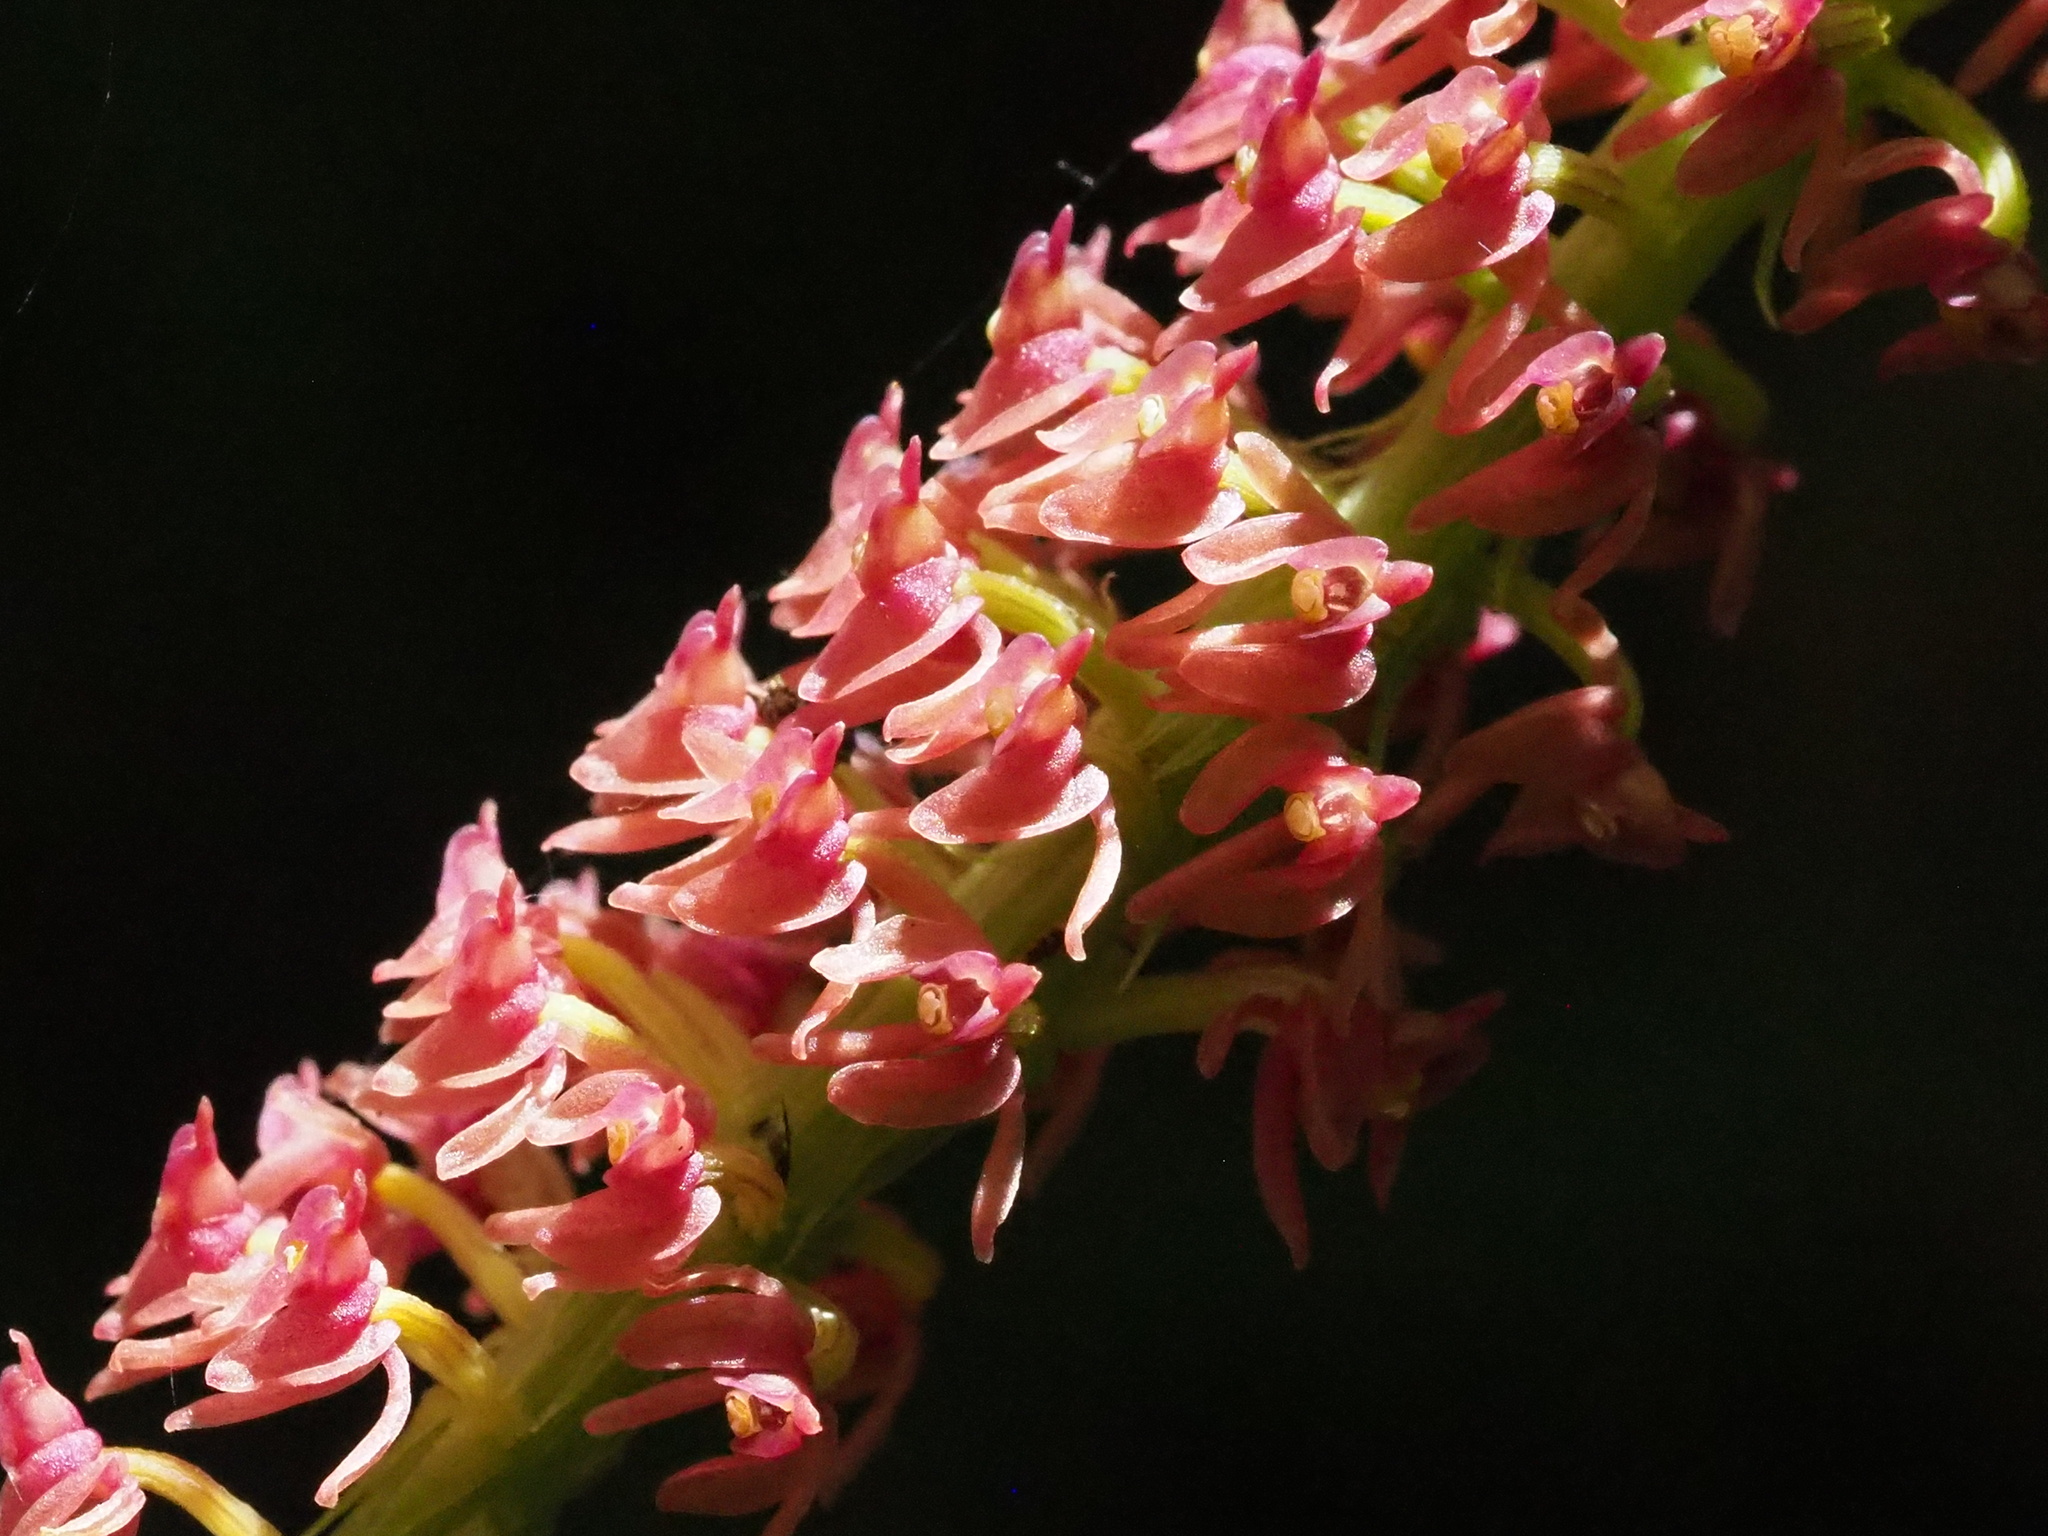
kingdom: Plantae
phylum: Tracheophyta
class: Liliopsida
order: Asparagales
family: Orchidaceae
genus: Dienia
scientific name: Dienia ophrydis
